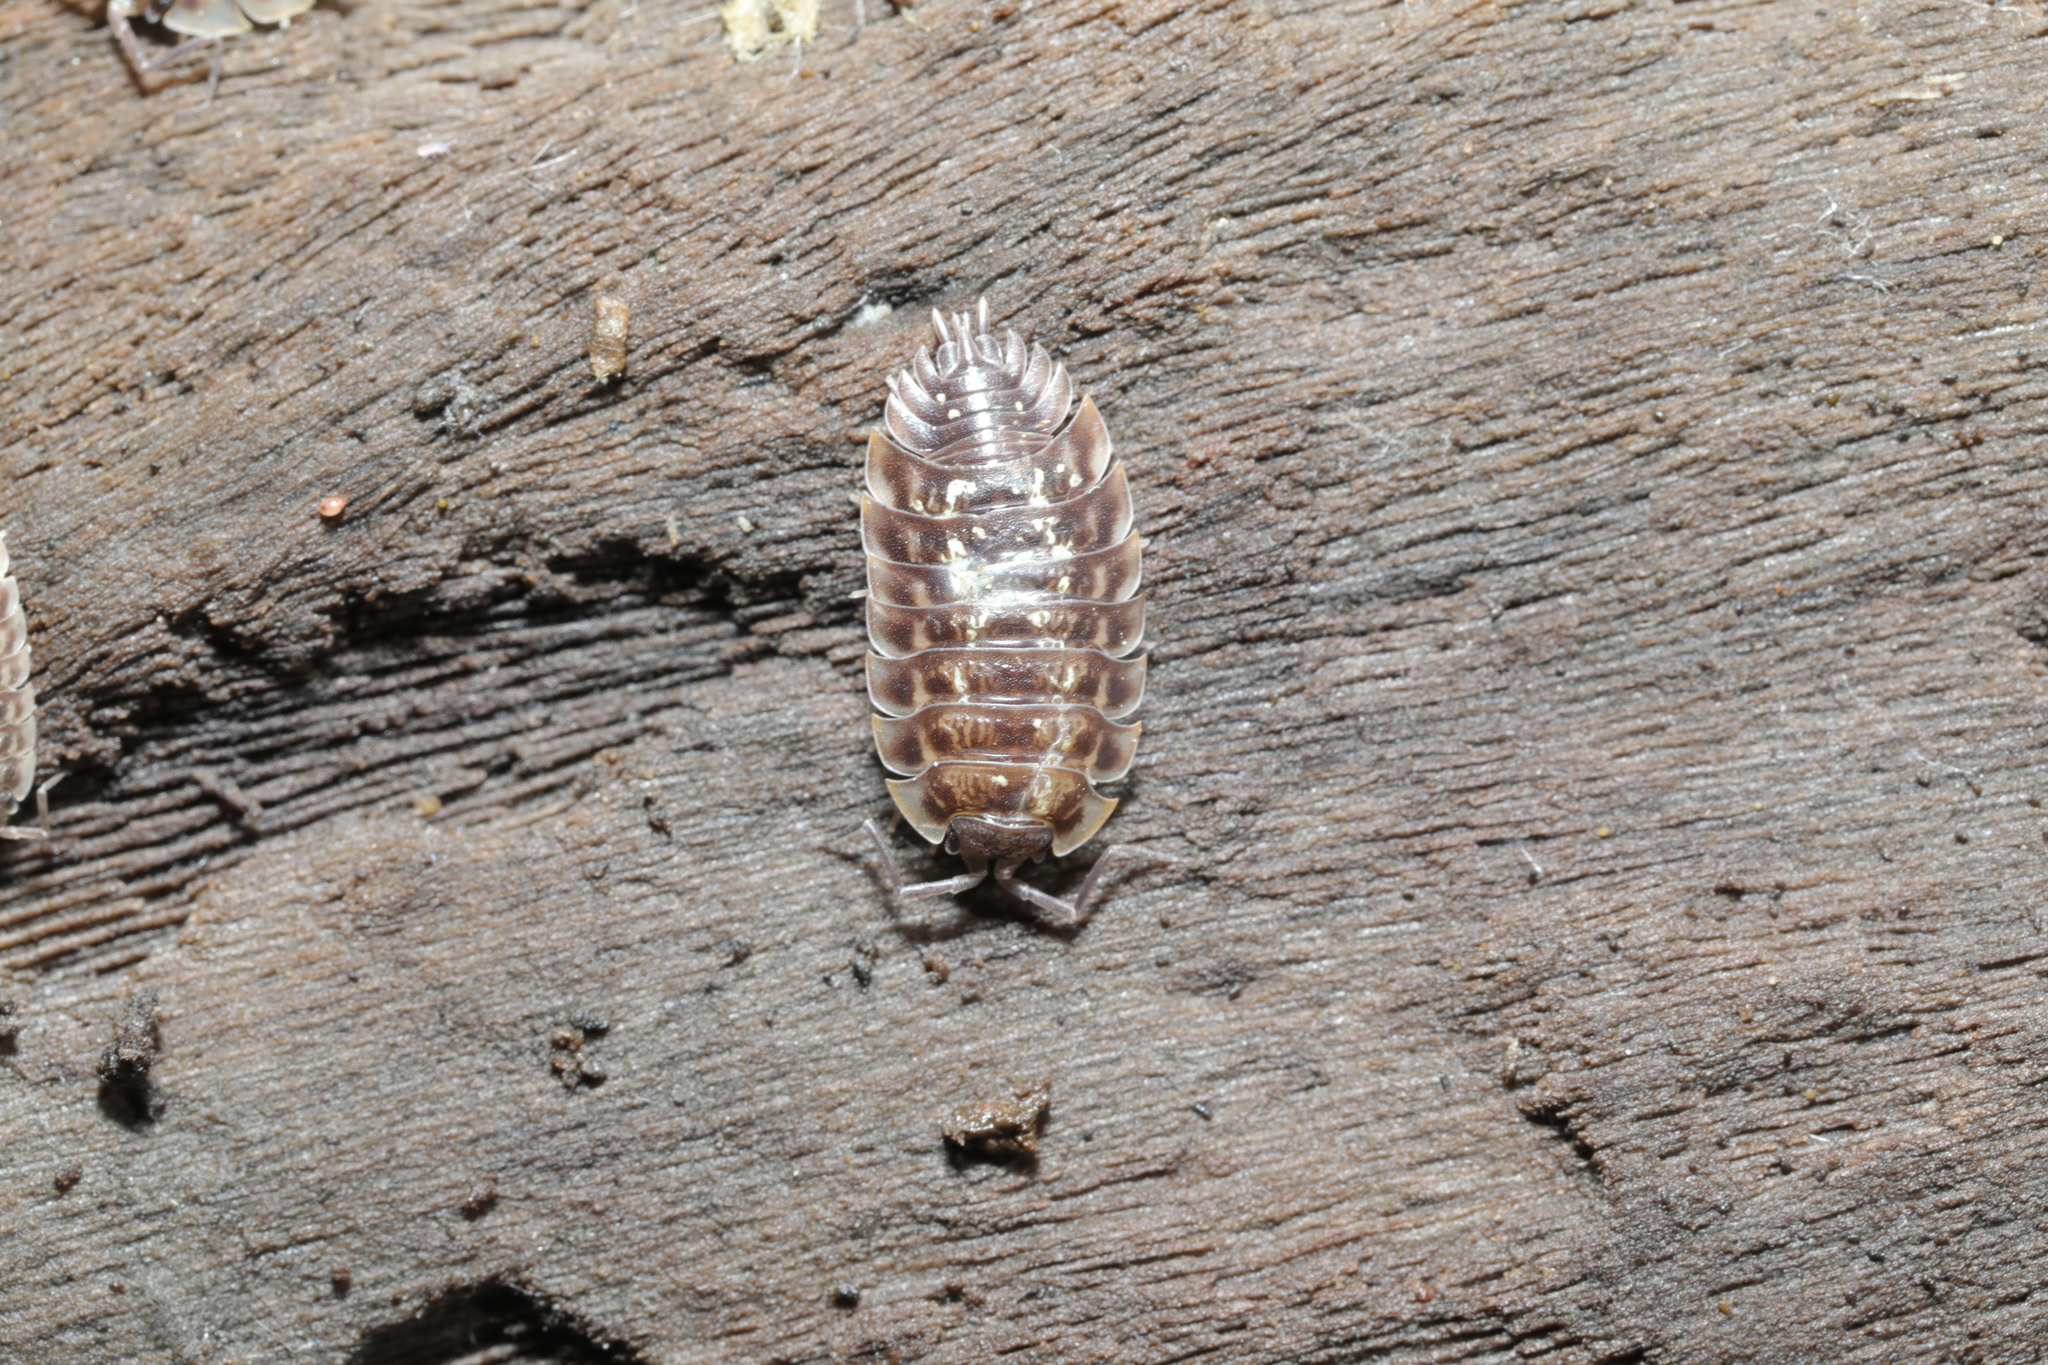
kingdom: Animalia
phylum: Arthropoda
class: Malacostraca
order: Isopoda
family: Oniscidae
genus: Oniscus
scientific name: Oniscus asellus
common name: Common shiny woodlouse
